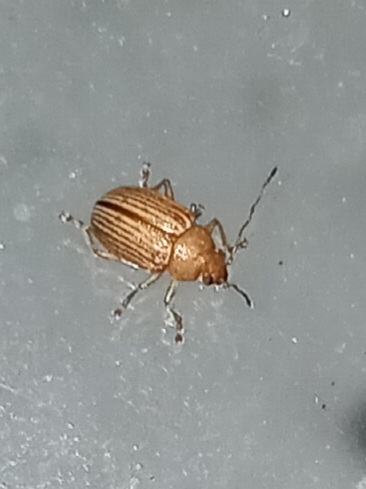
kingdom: Animalia
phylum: Arthropoda
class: Insecta
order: Coleoptera
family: Chrysomelidae
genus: Colaspis
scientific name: Colaspis brunnea
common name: Grape colaspis
